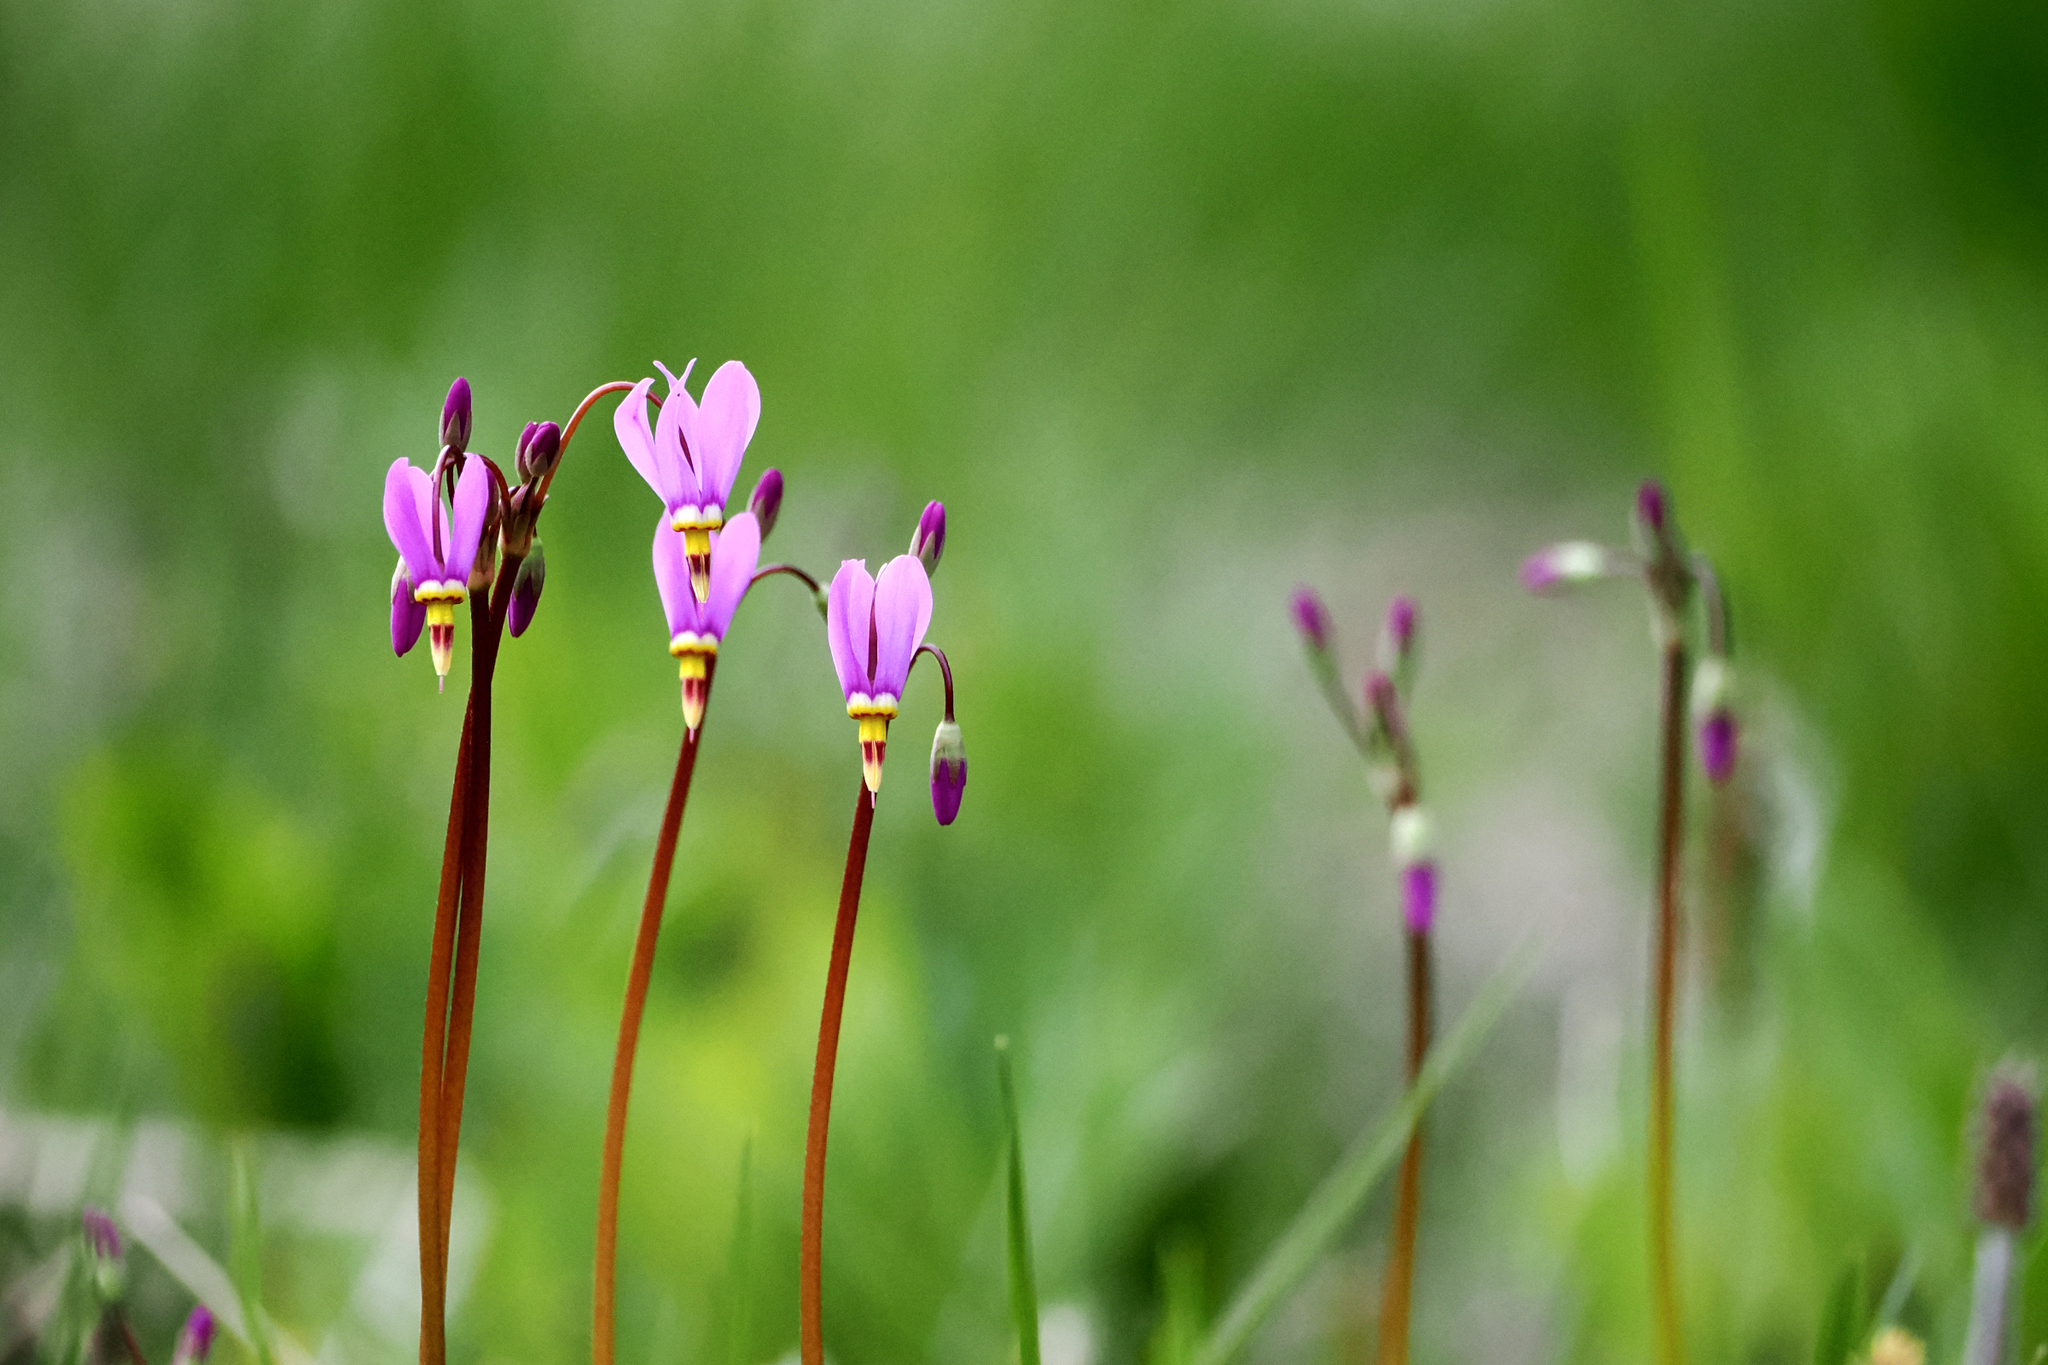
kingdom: Plantae
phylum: Tracheophyta
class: Magnoliopsida
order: Ericales
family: Primulaceae
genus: Dodecatheon
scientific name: Dodecatheon pulchellum
